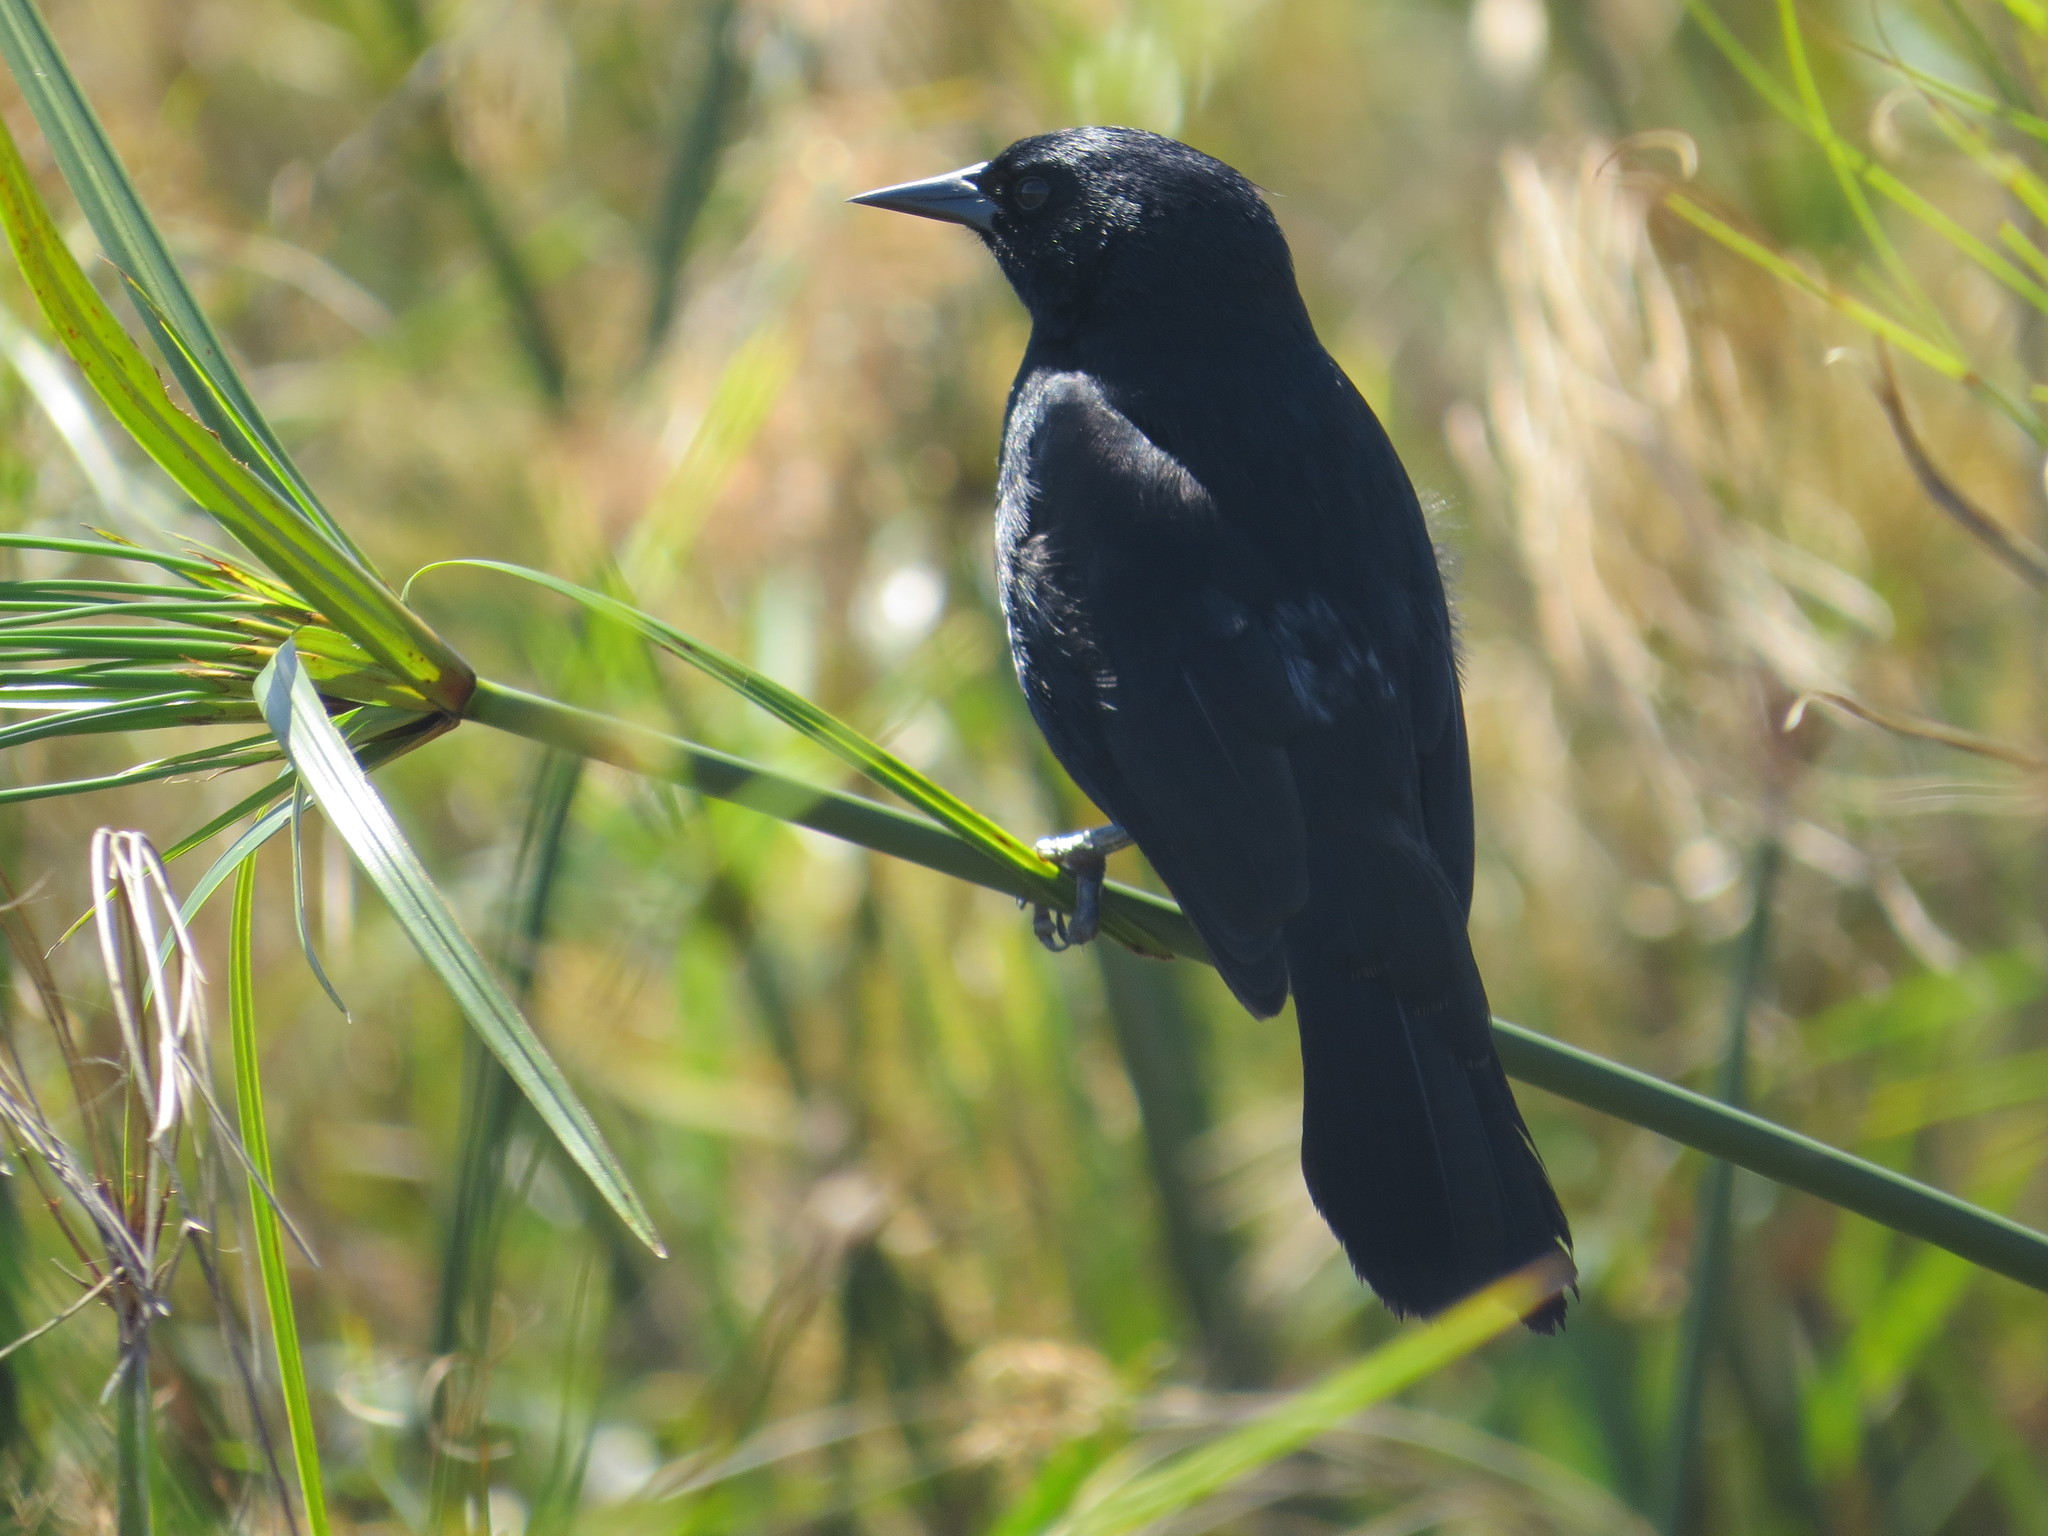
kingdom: Animalia
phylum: Chordata
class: Aves
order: Passeriformes
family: Icteridae
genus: Agelasticus
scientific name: Agelasticus cyanopus
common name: Unicolored blackbird
